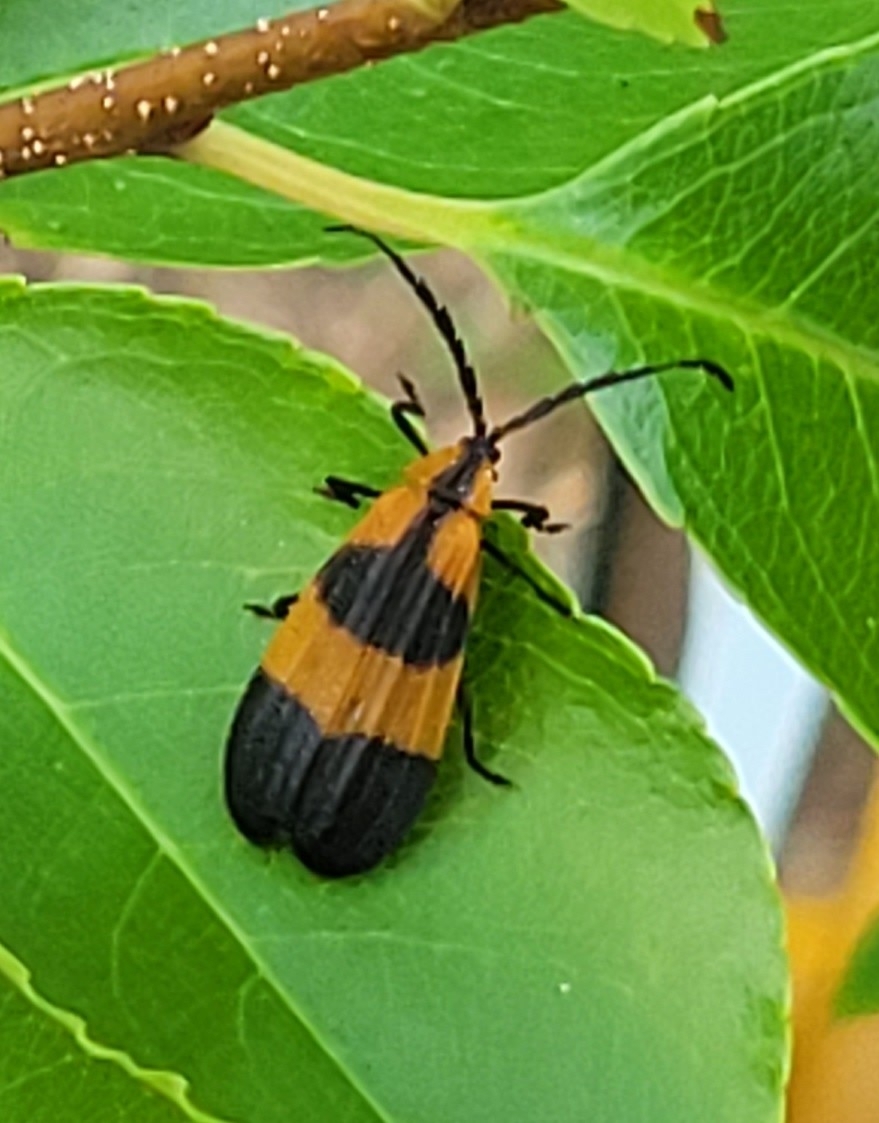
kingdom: Animalia
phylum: Arthropoda
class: Insecta
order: Coleoptera
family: Lycidae
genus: Calopteron
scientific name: Calopteron reticulatum
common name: Banded net-winged beetle
